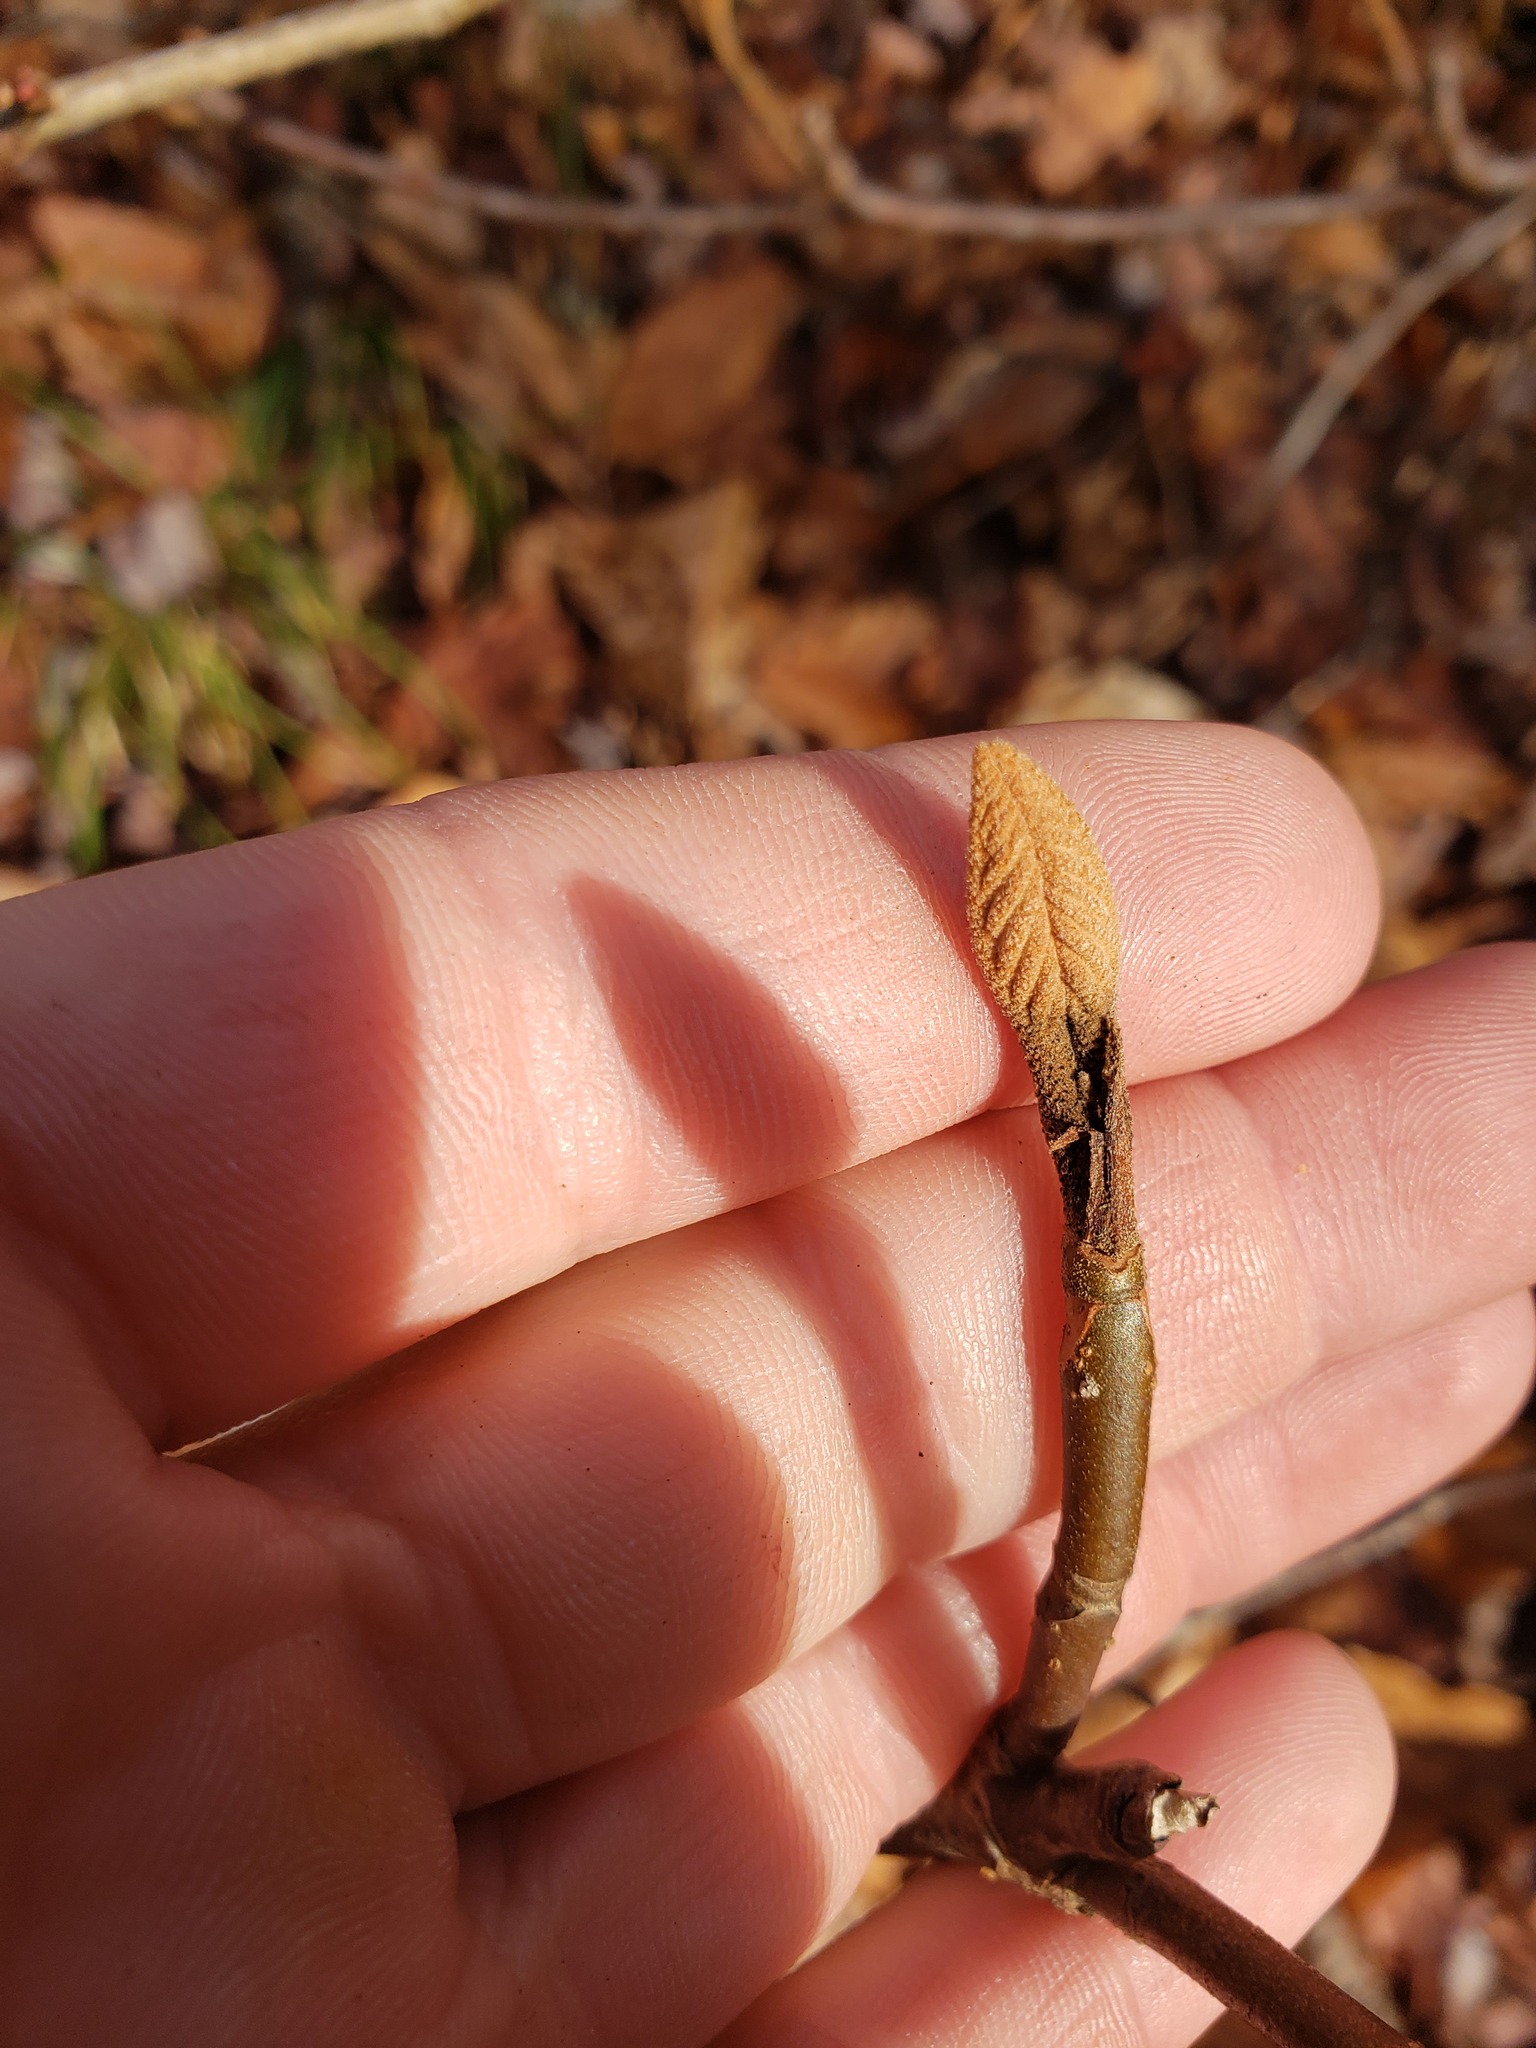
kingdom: Plantae
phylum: Tracheophyta
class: Magnoliopsida
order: Dipsacales
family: Viburnaceae
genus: Viburnum
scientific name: Viburnum lantanoides
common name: Hobblebush
